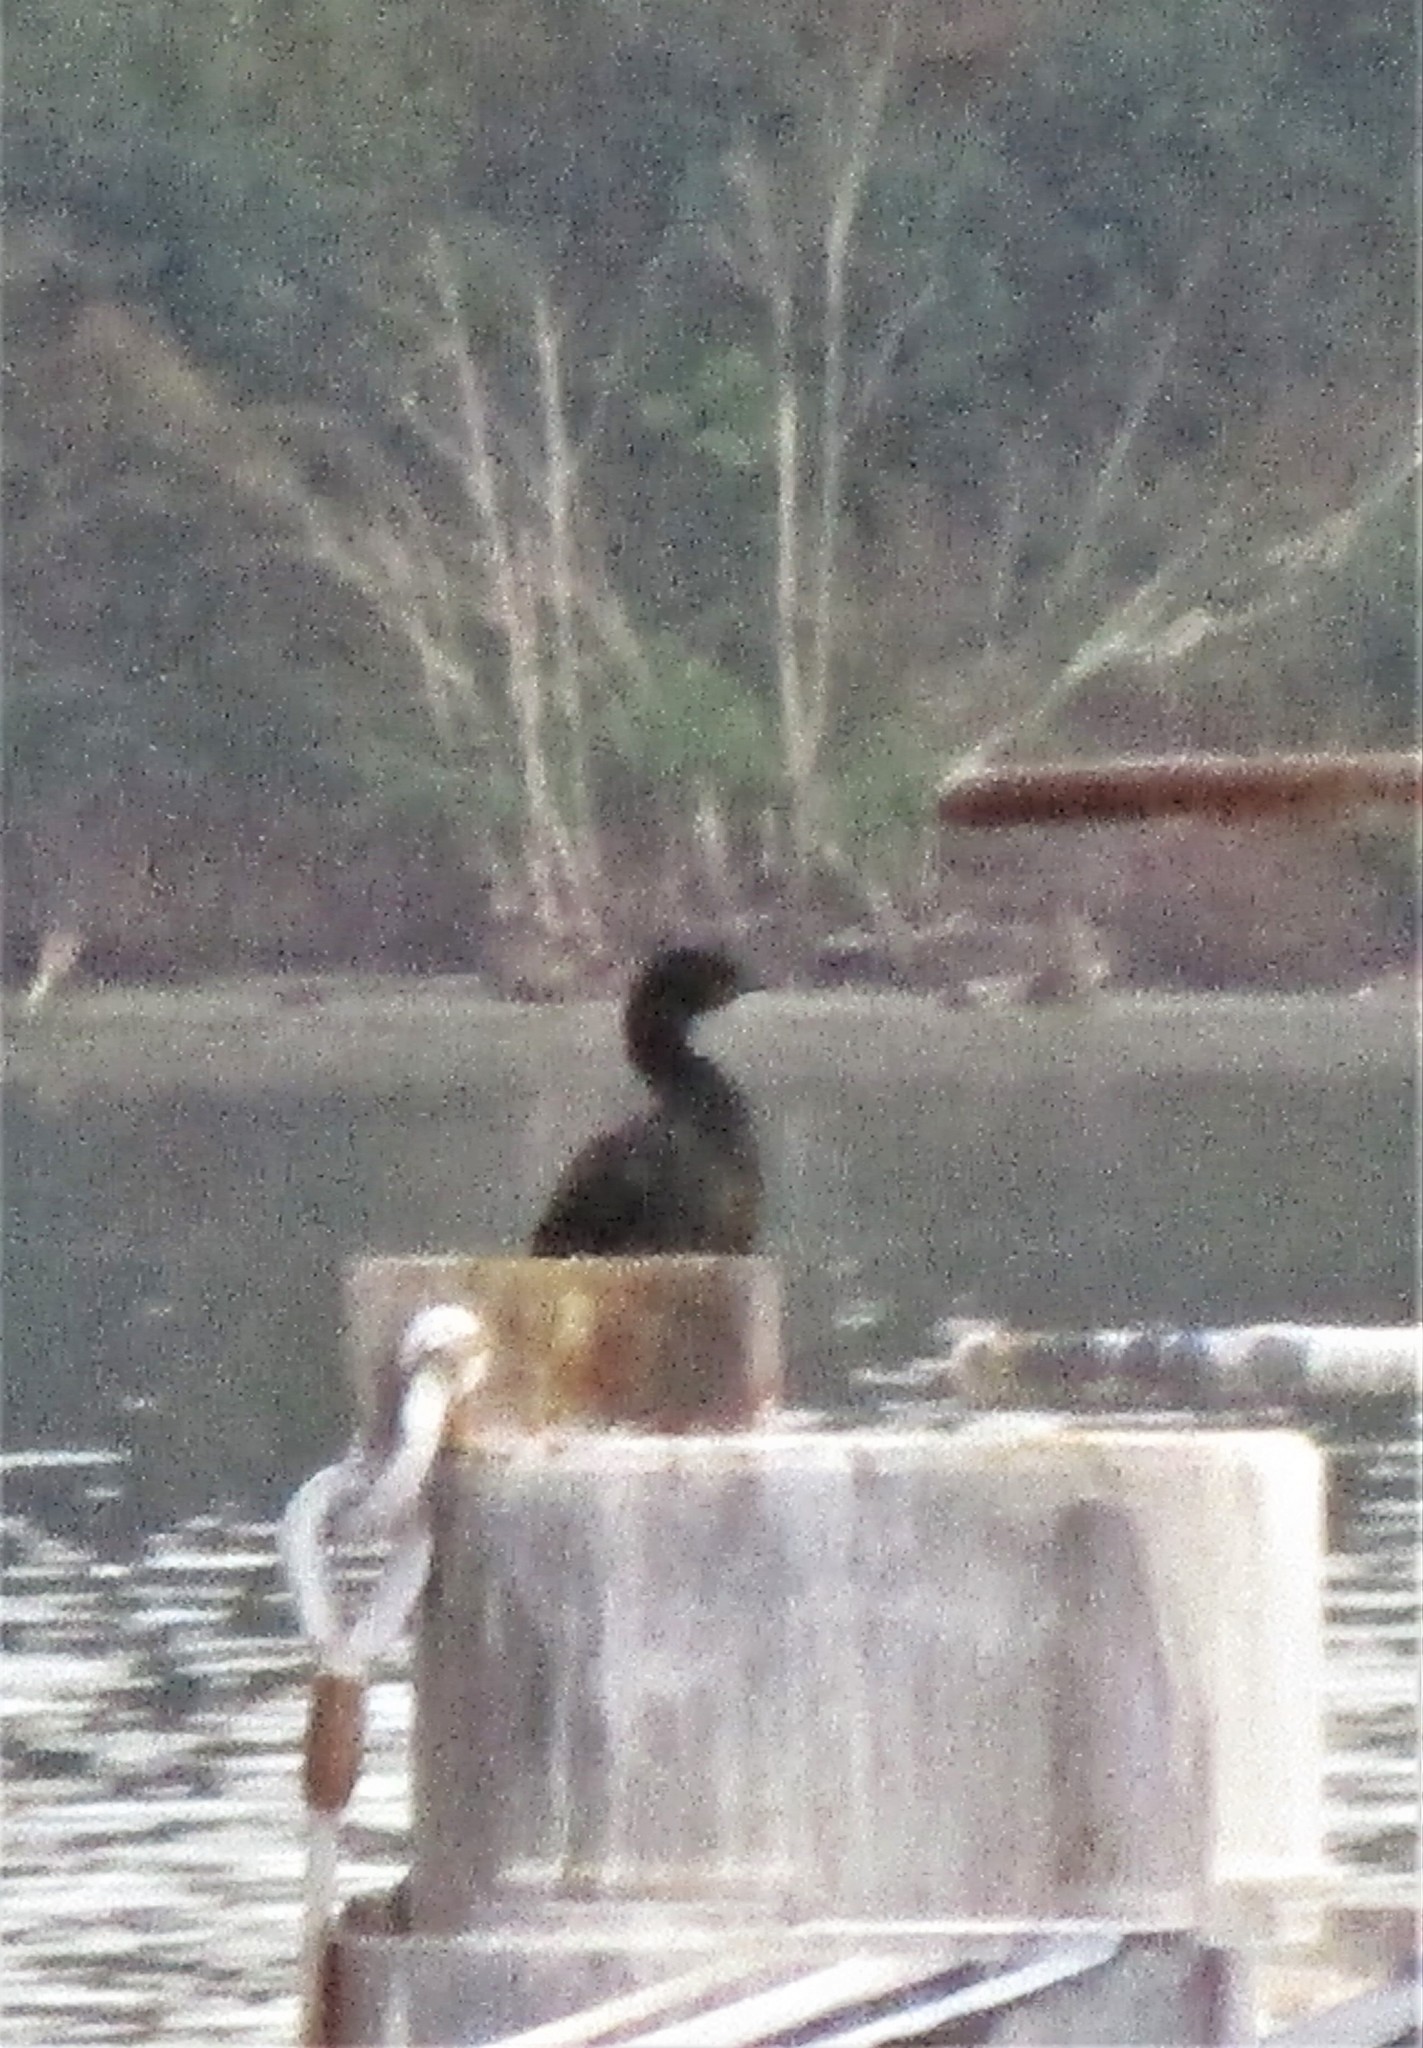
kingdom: Animalia
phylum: Chordata
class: Aves
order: Suliformes
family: Phalacrocoracidae
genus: Phalacrocorax
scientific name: Phalacrocorax pelagicus
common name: Pelagic cormorant
